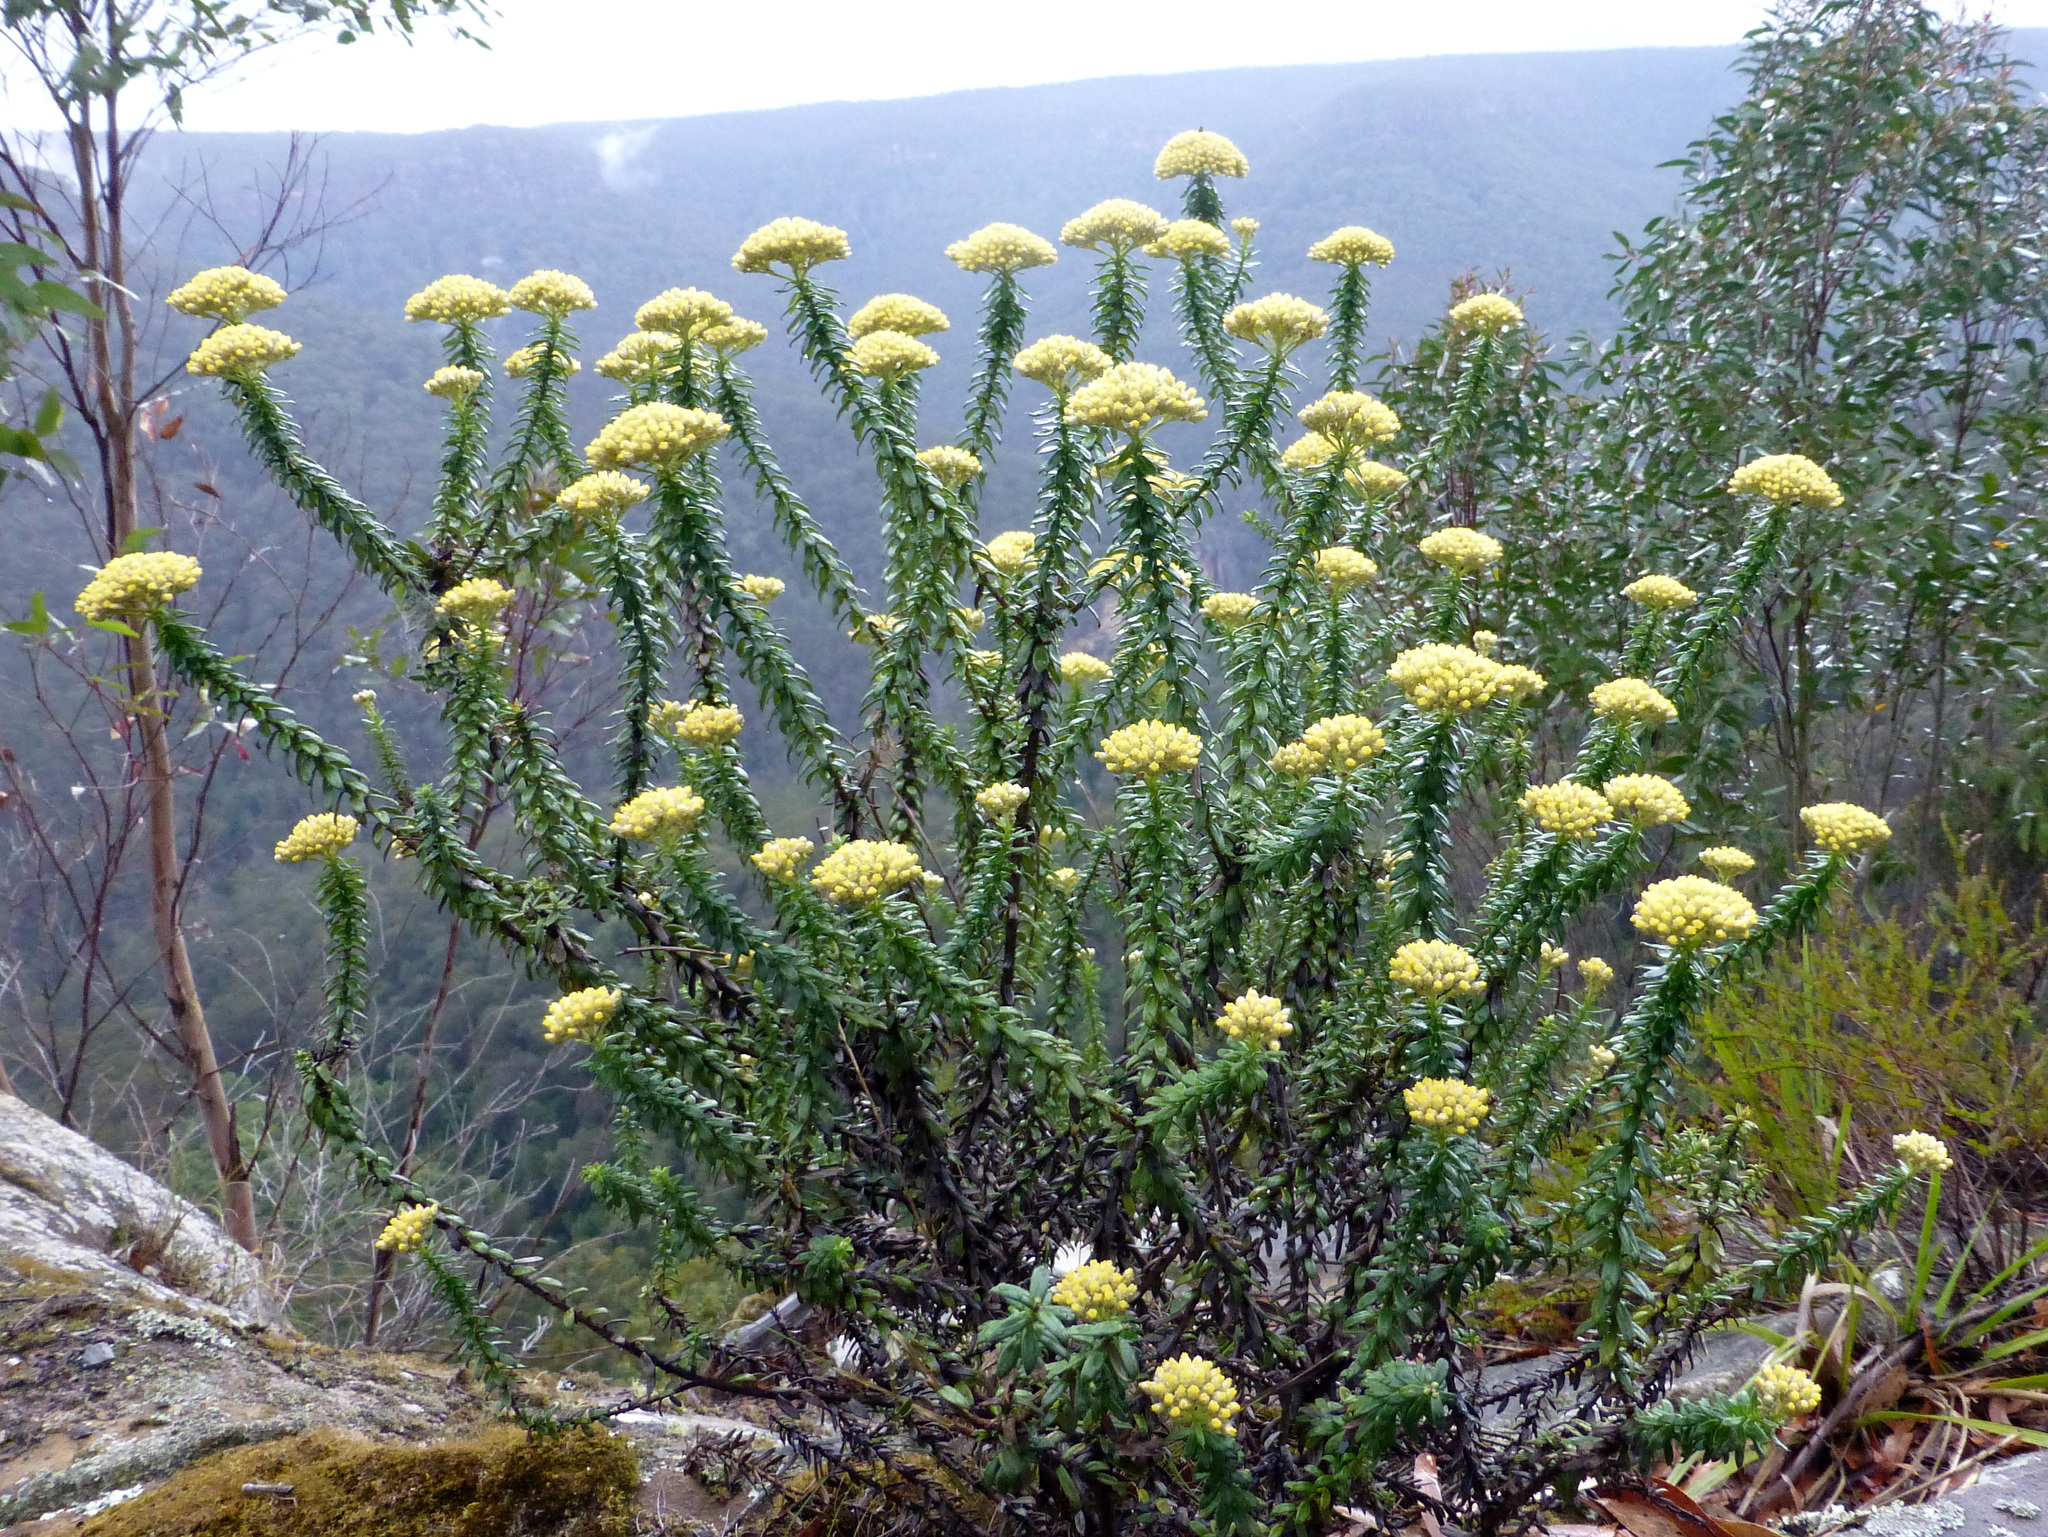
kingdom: Plantae
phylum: Tracheophyta
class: Magnoliopsida
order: Asterales
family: Asteraceae
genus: Cassinia
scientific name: Cassinia denticulata
